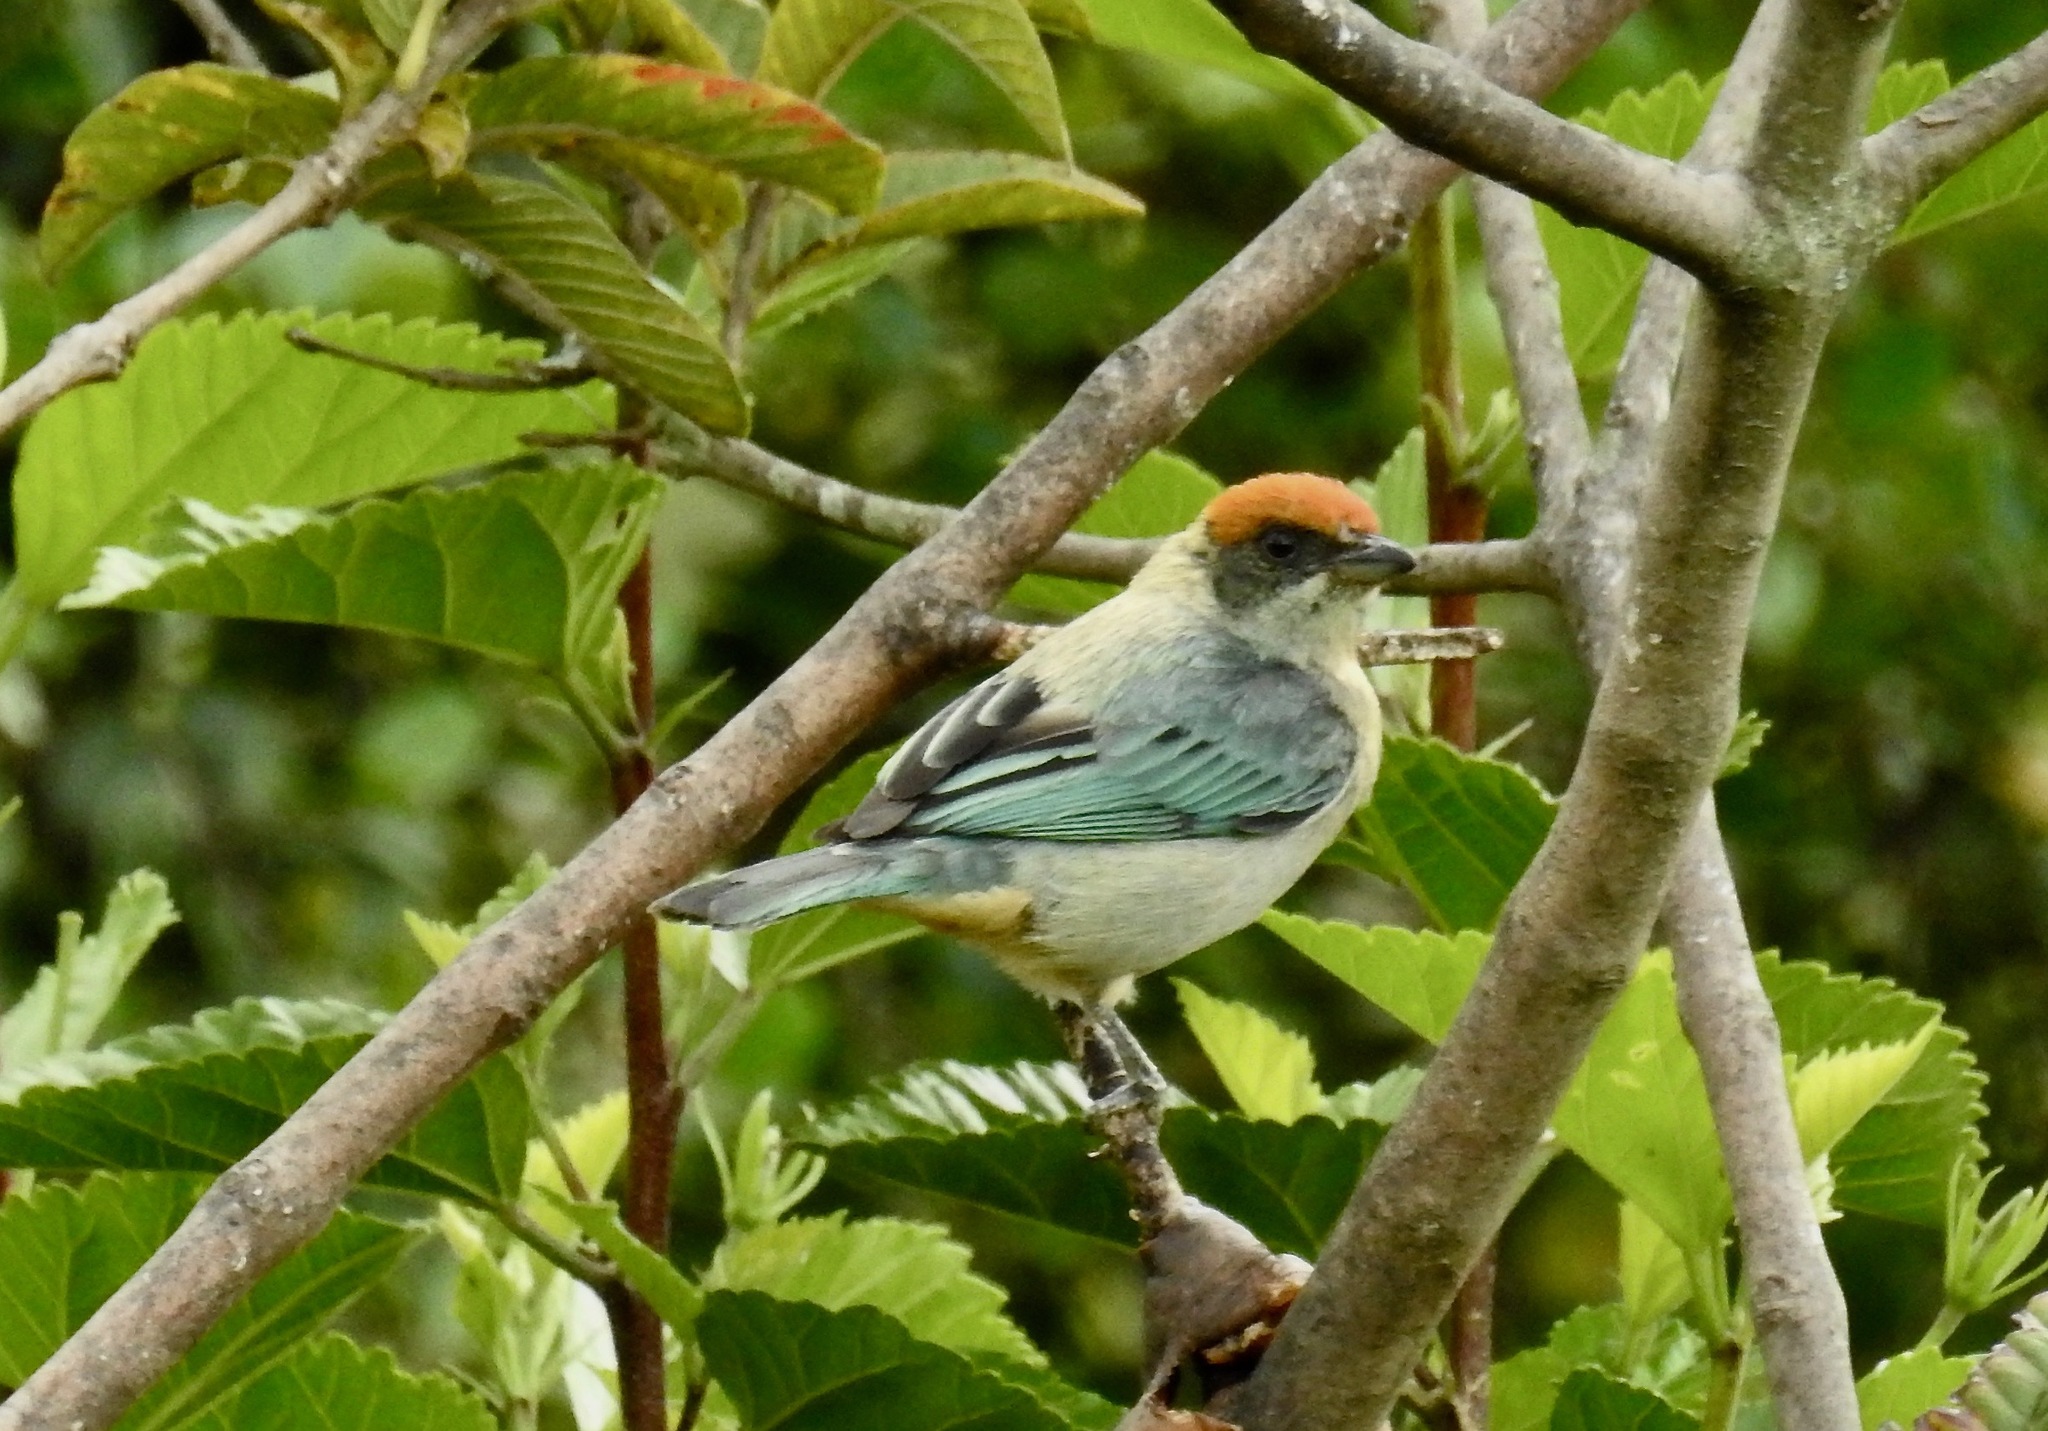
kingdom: Animalia
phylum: Chordata
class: Aves
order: Passeriformes
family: Thraupidae
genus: Stilpnia
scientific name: Stilpnia vitriolina
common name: Scrub tanager
